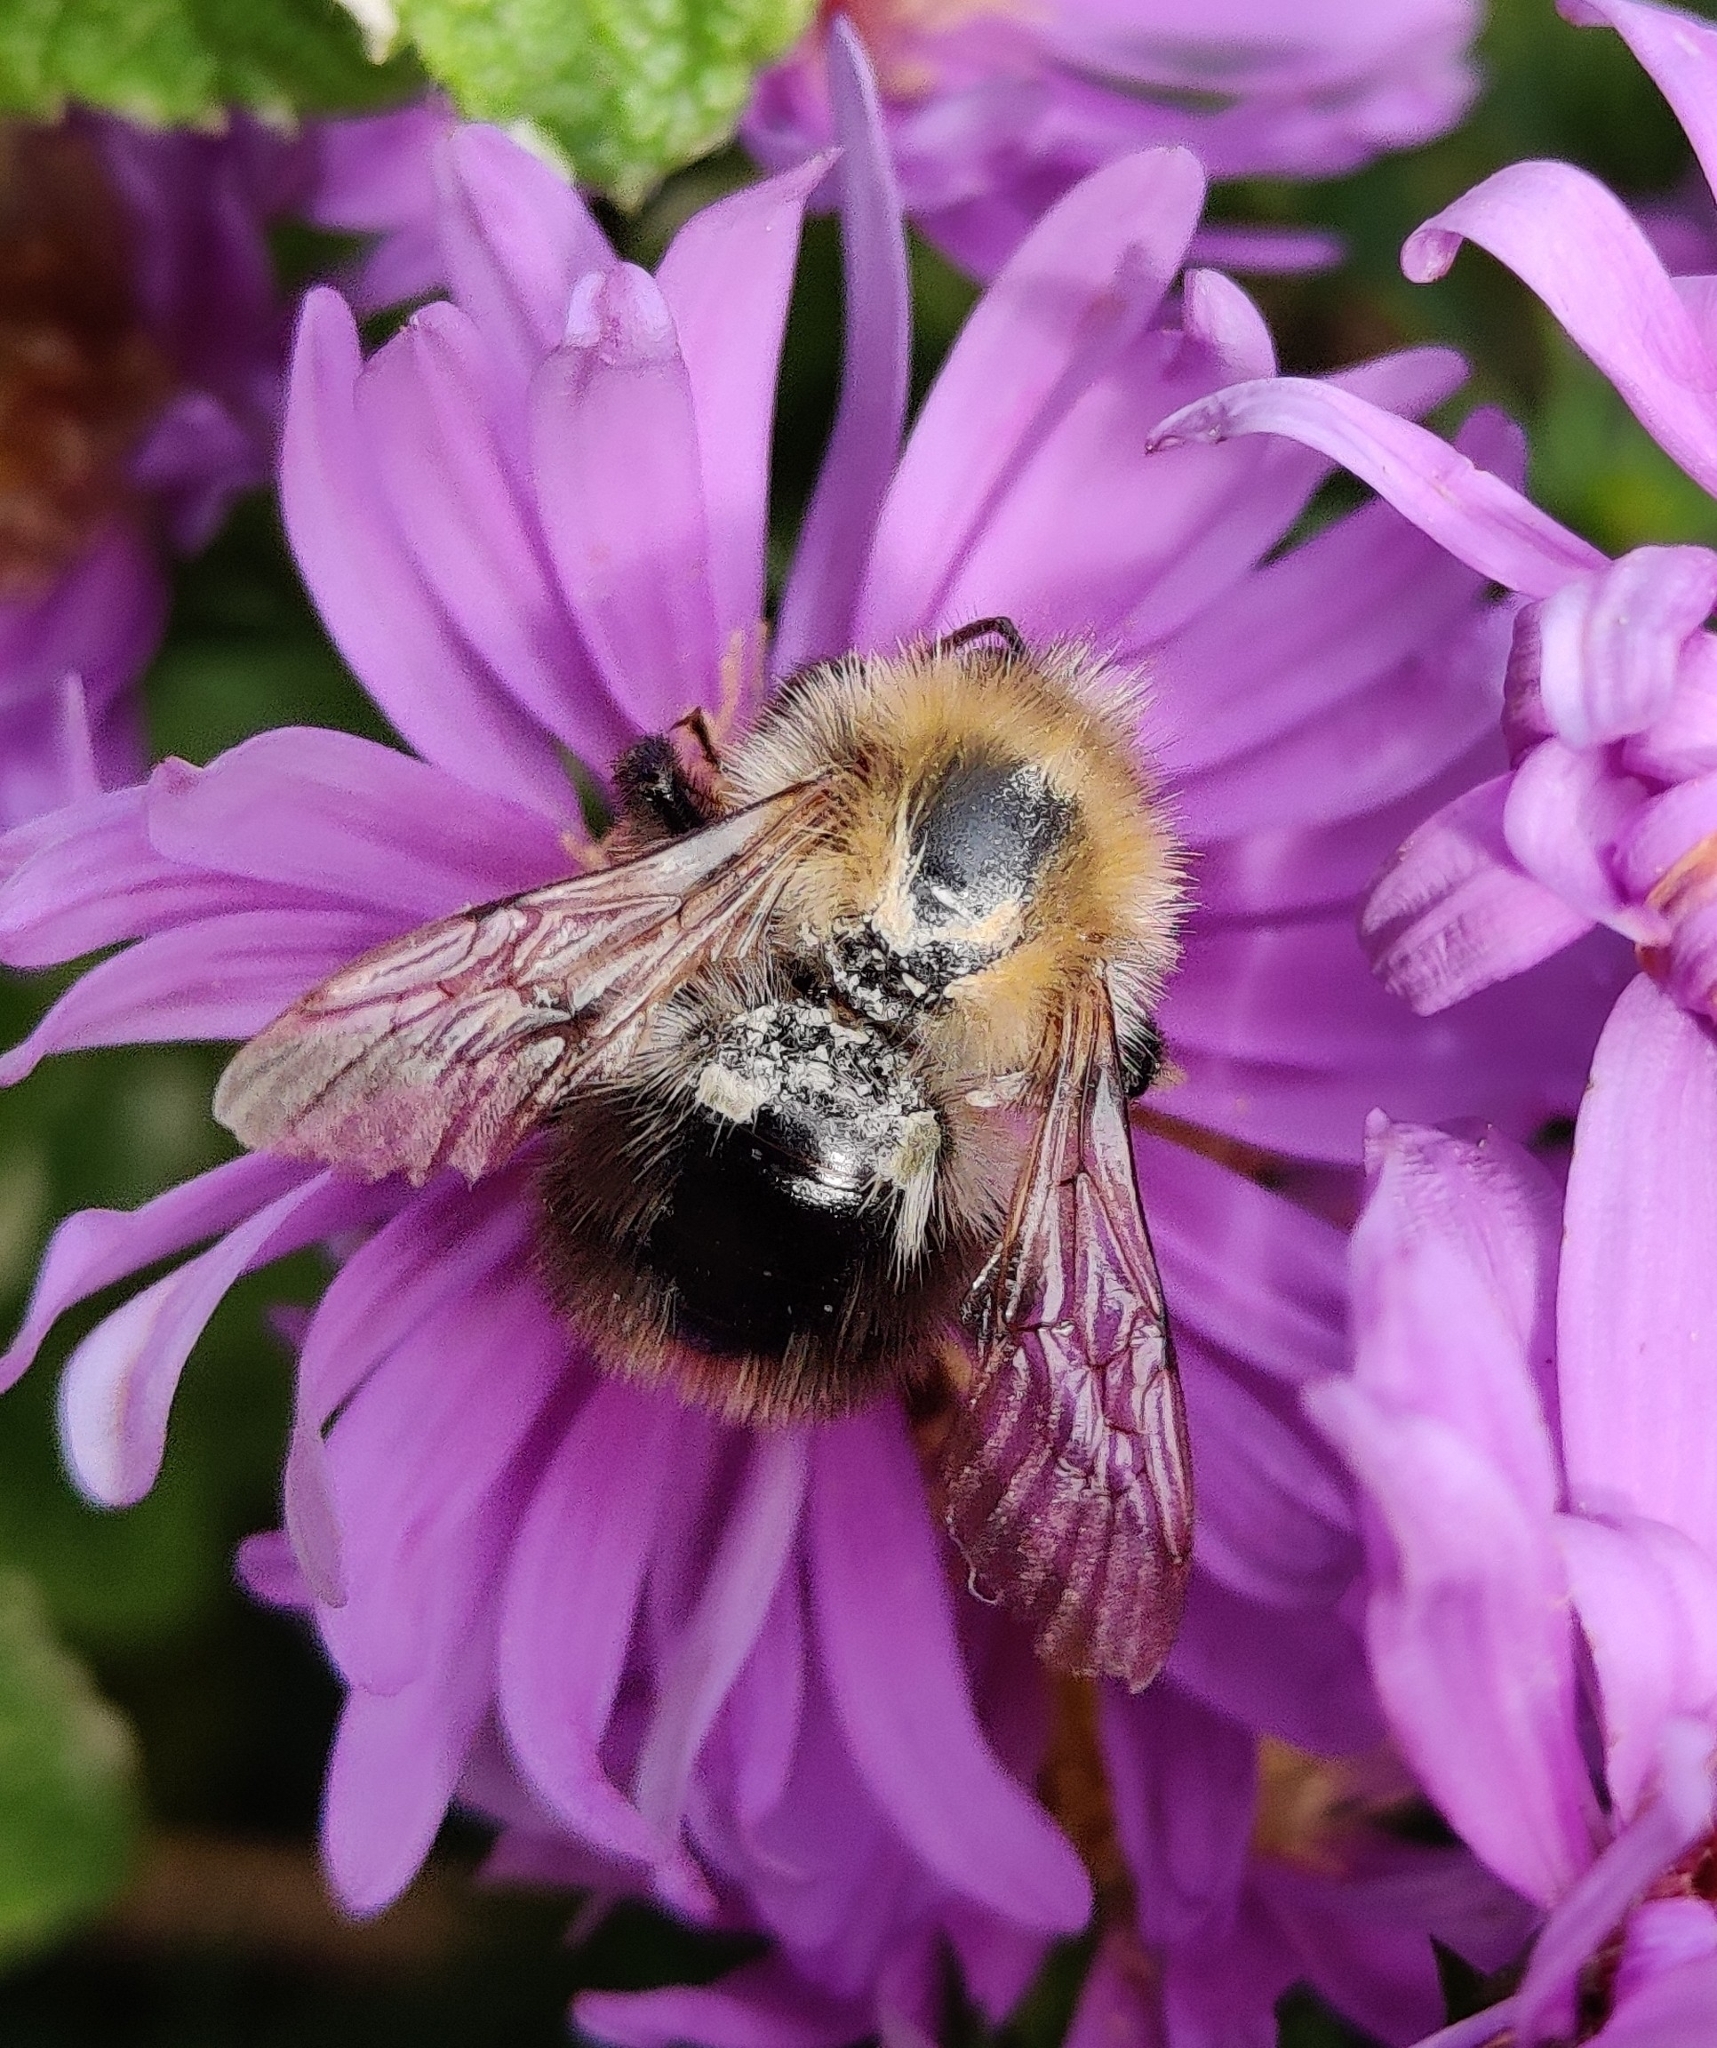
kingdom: Animalia
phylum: Arthropoda
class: Insecta
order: Hymenoptera
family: Apidae
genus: Bombus
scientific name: Bombus pascuorum
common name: Common carder bee
